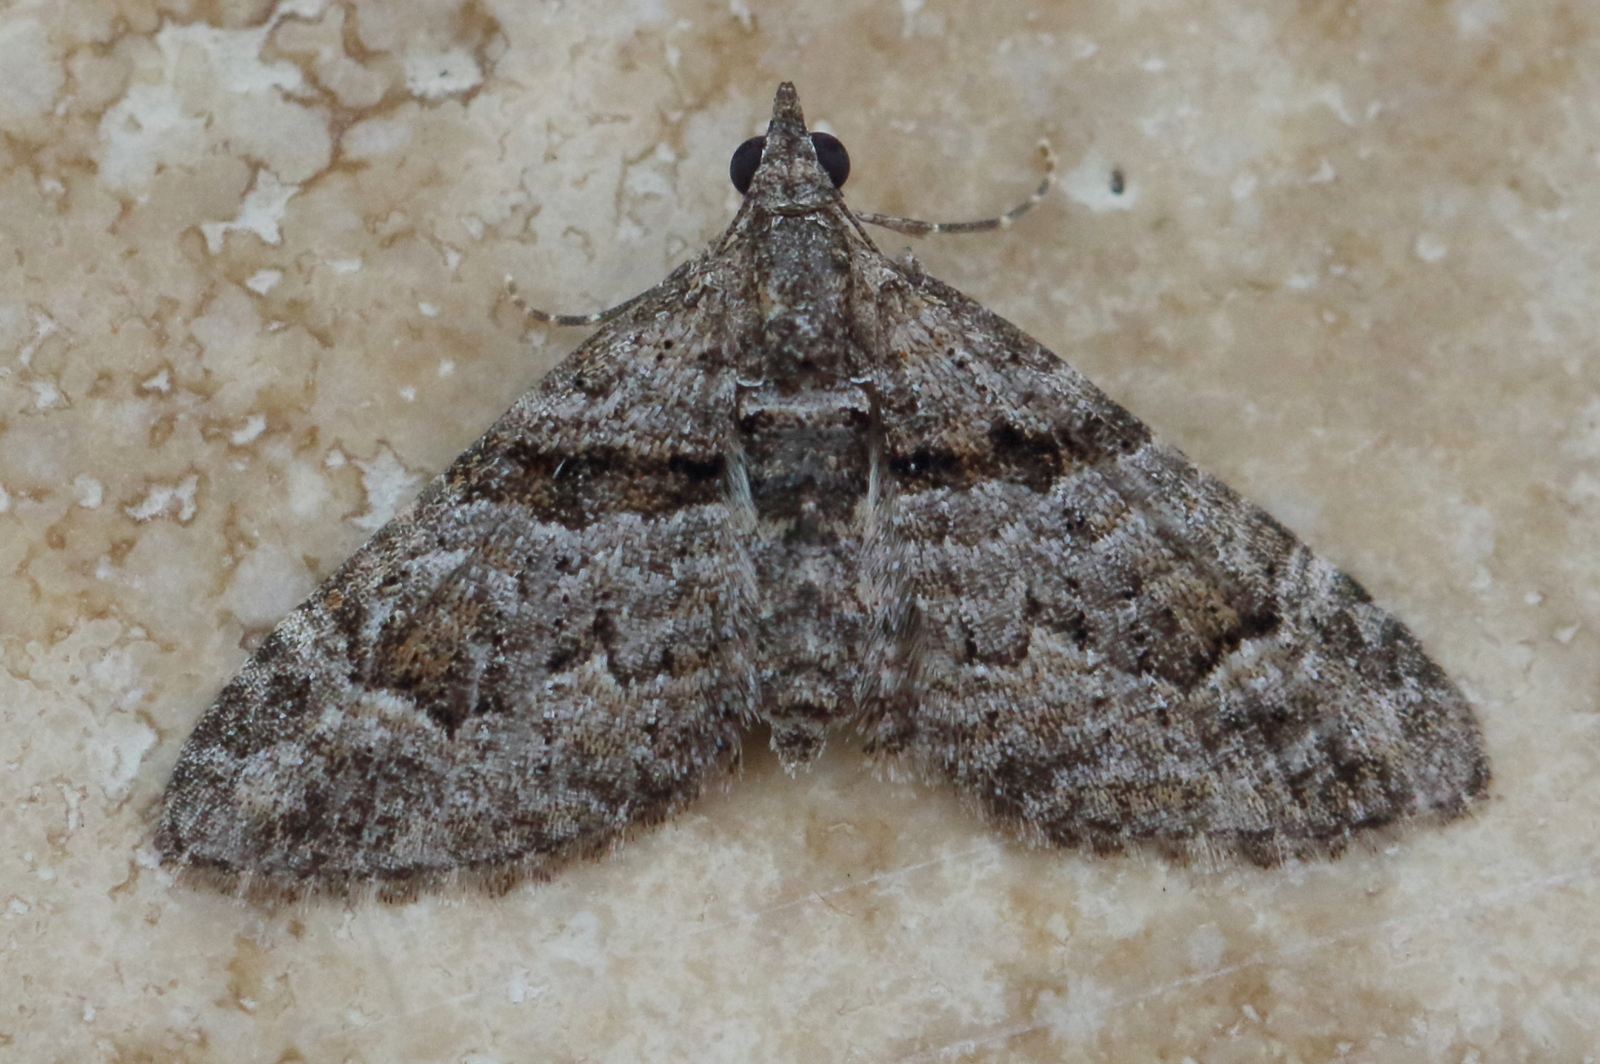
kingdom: Animalia
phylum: Arthropoda
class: Insecta
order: Lepidoptera
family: Geometridae
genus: Phrissogonus
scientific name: Phrissogonus laticostata
